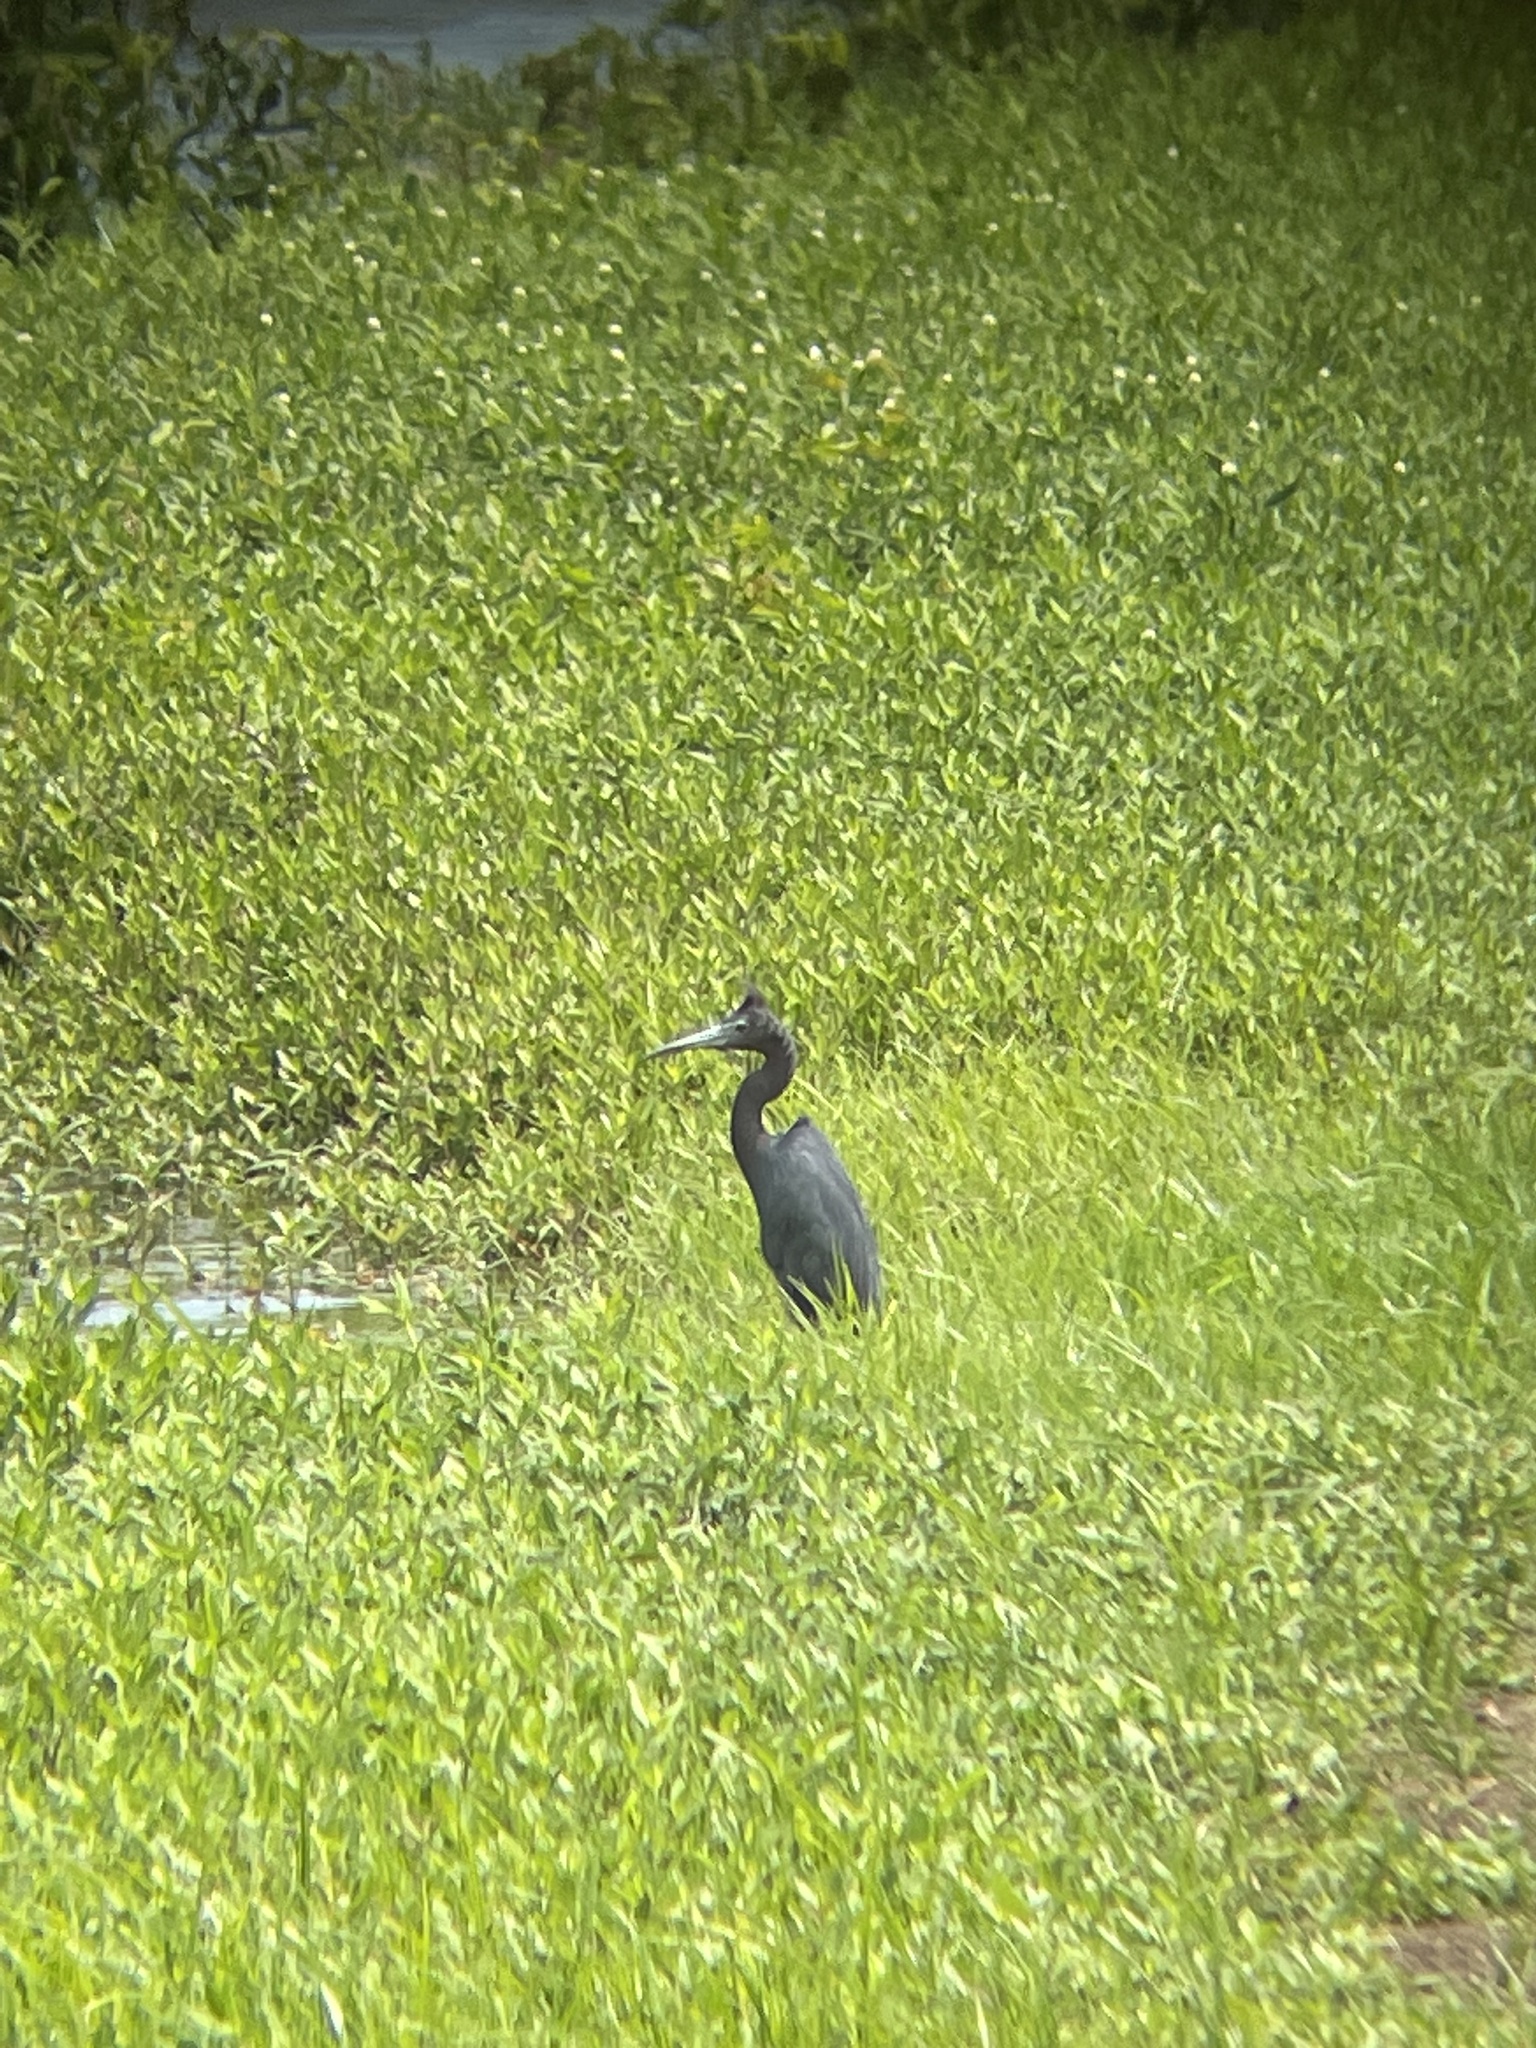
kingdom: Animalia
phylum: Chordata
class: Aves
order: Pelecaniformes
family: Ardeidae
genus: Egretta
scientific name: Egretta caerulea
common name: Little blue heron
